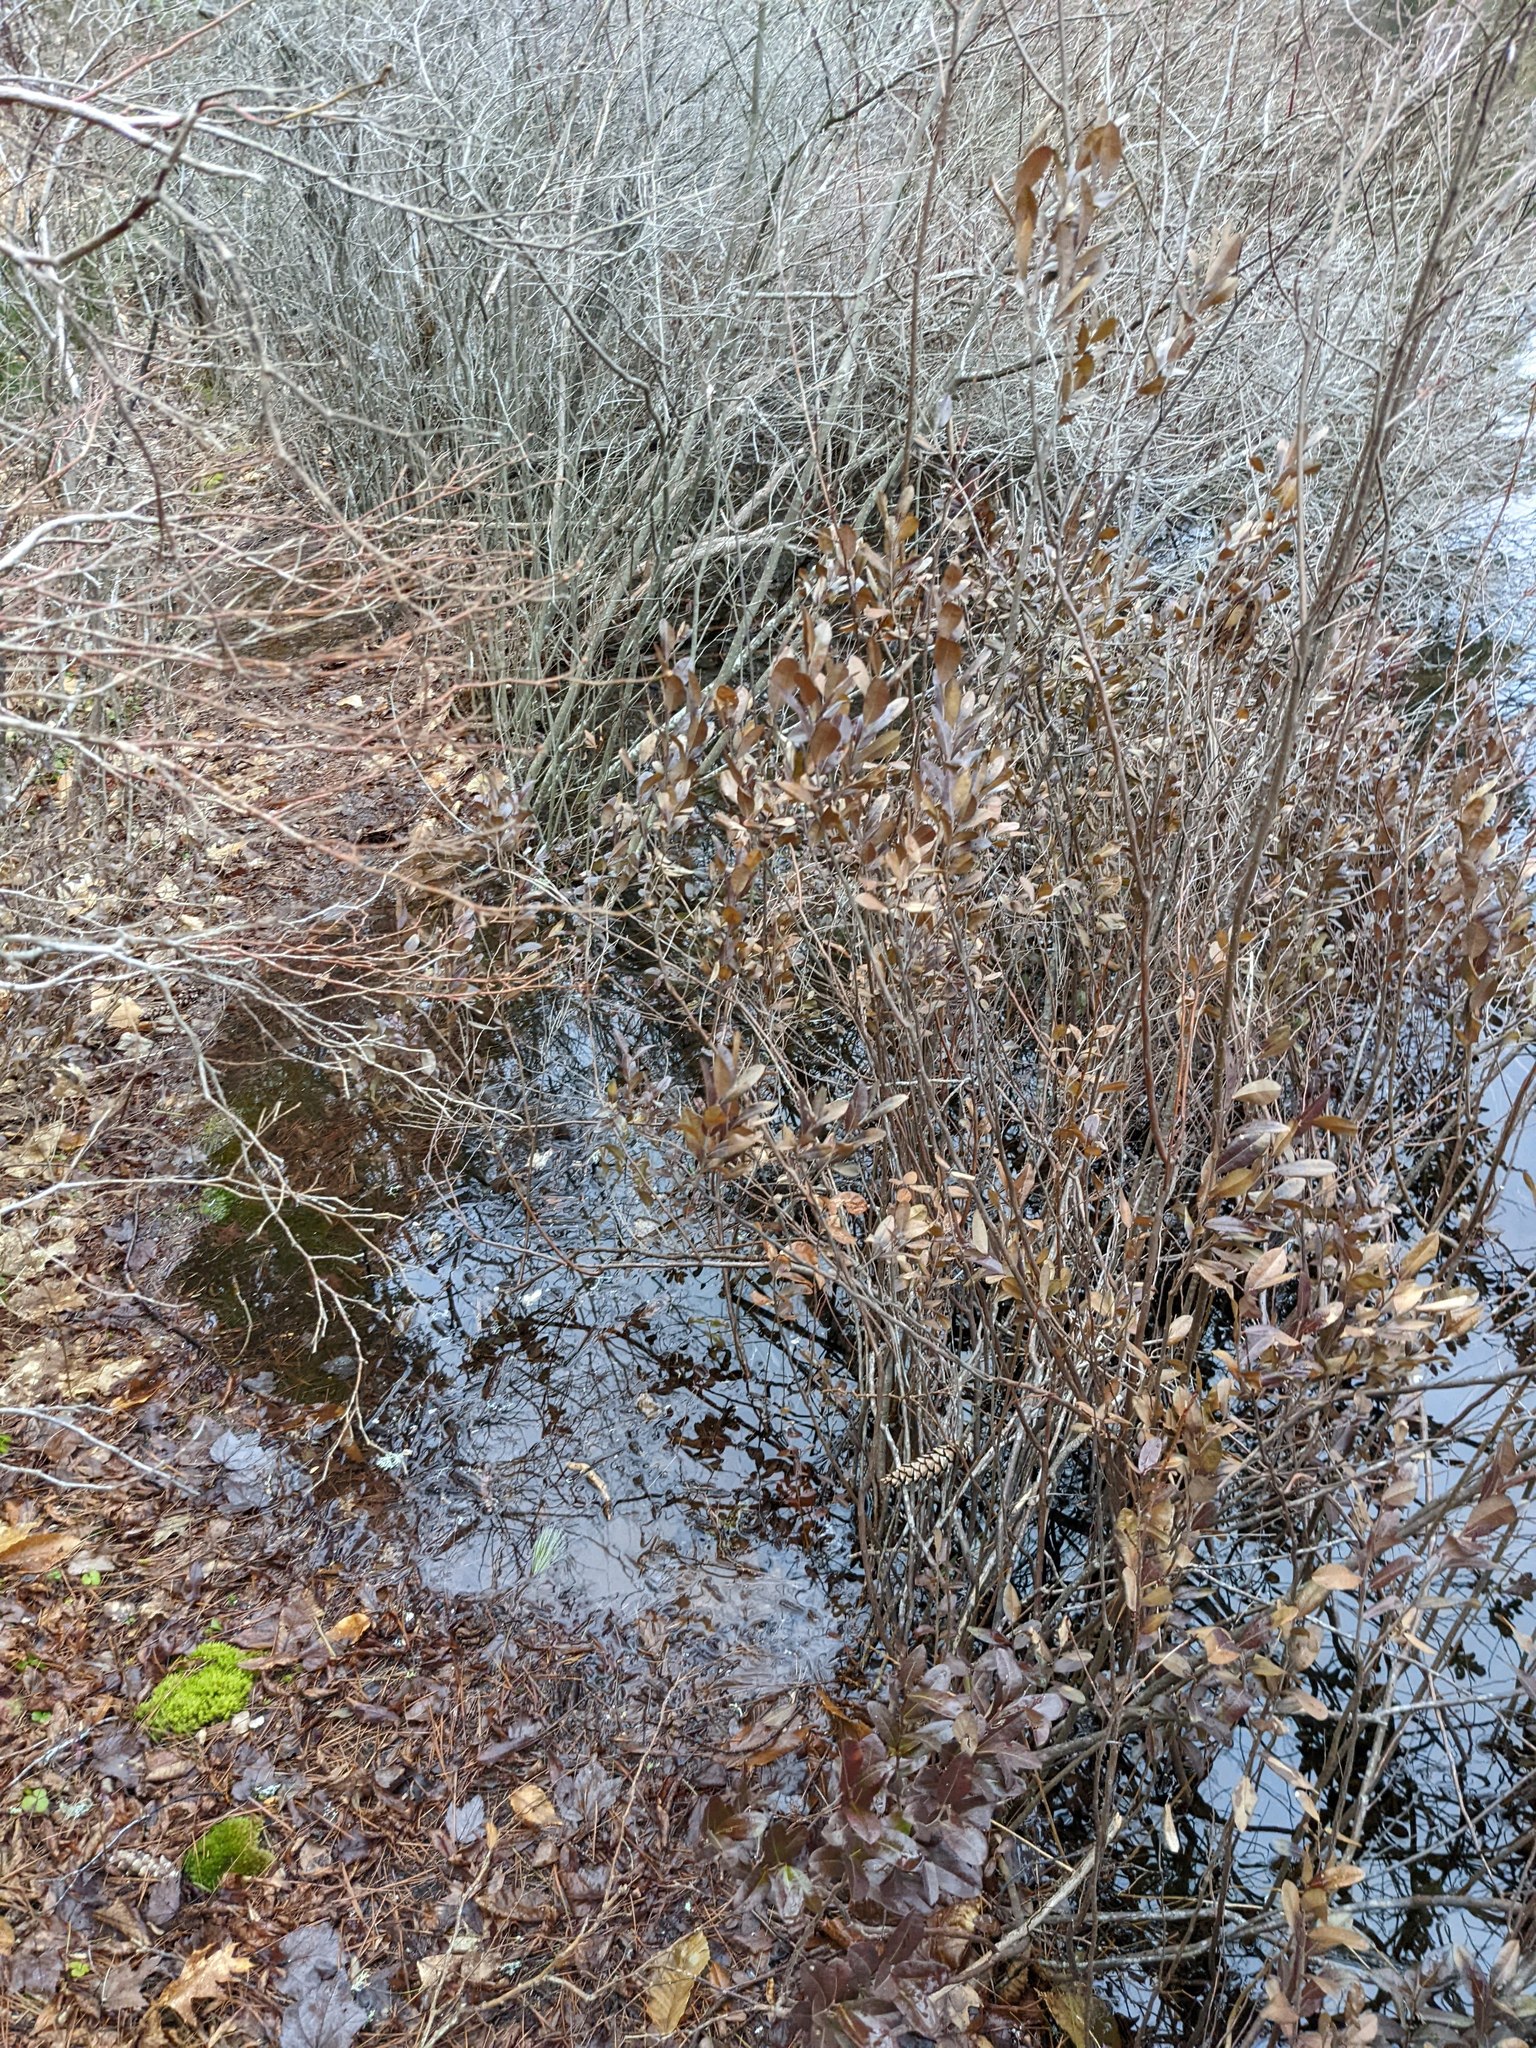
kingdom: Plantae
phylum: Tracheophyta
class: Magnoliopsida
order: Ericales
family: Ericaceae
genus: Chamaedaphne
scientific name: Chamaedaphne calyculata
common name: Leatherleaf
